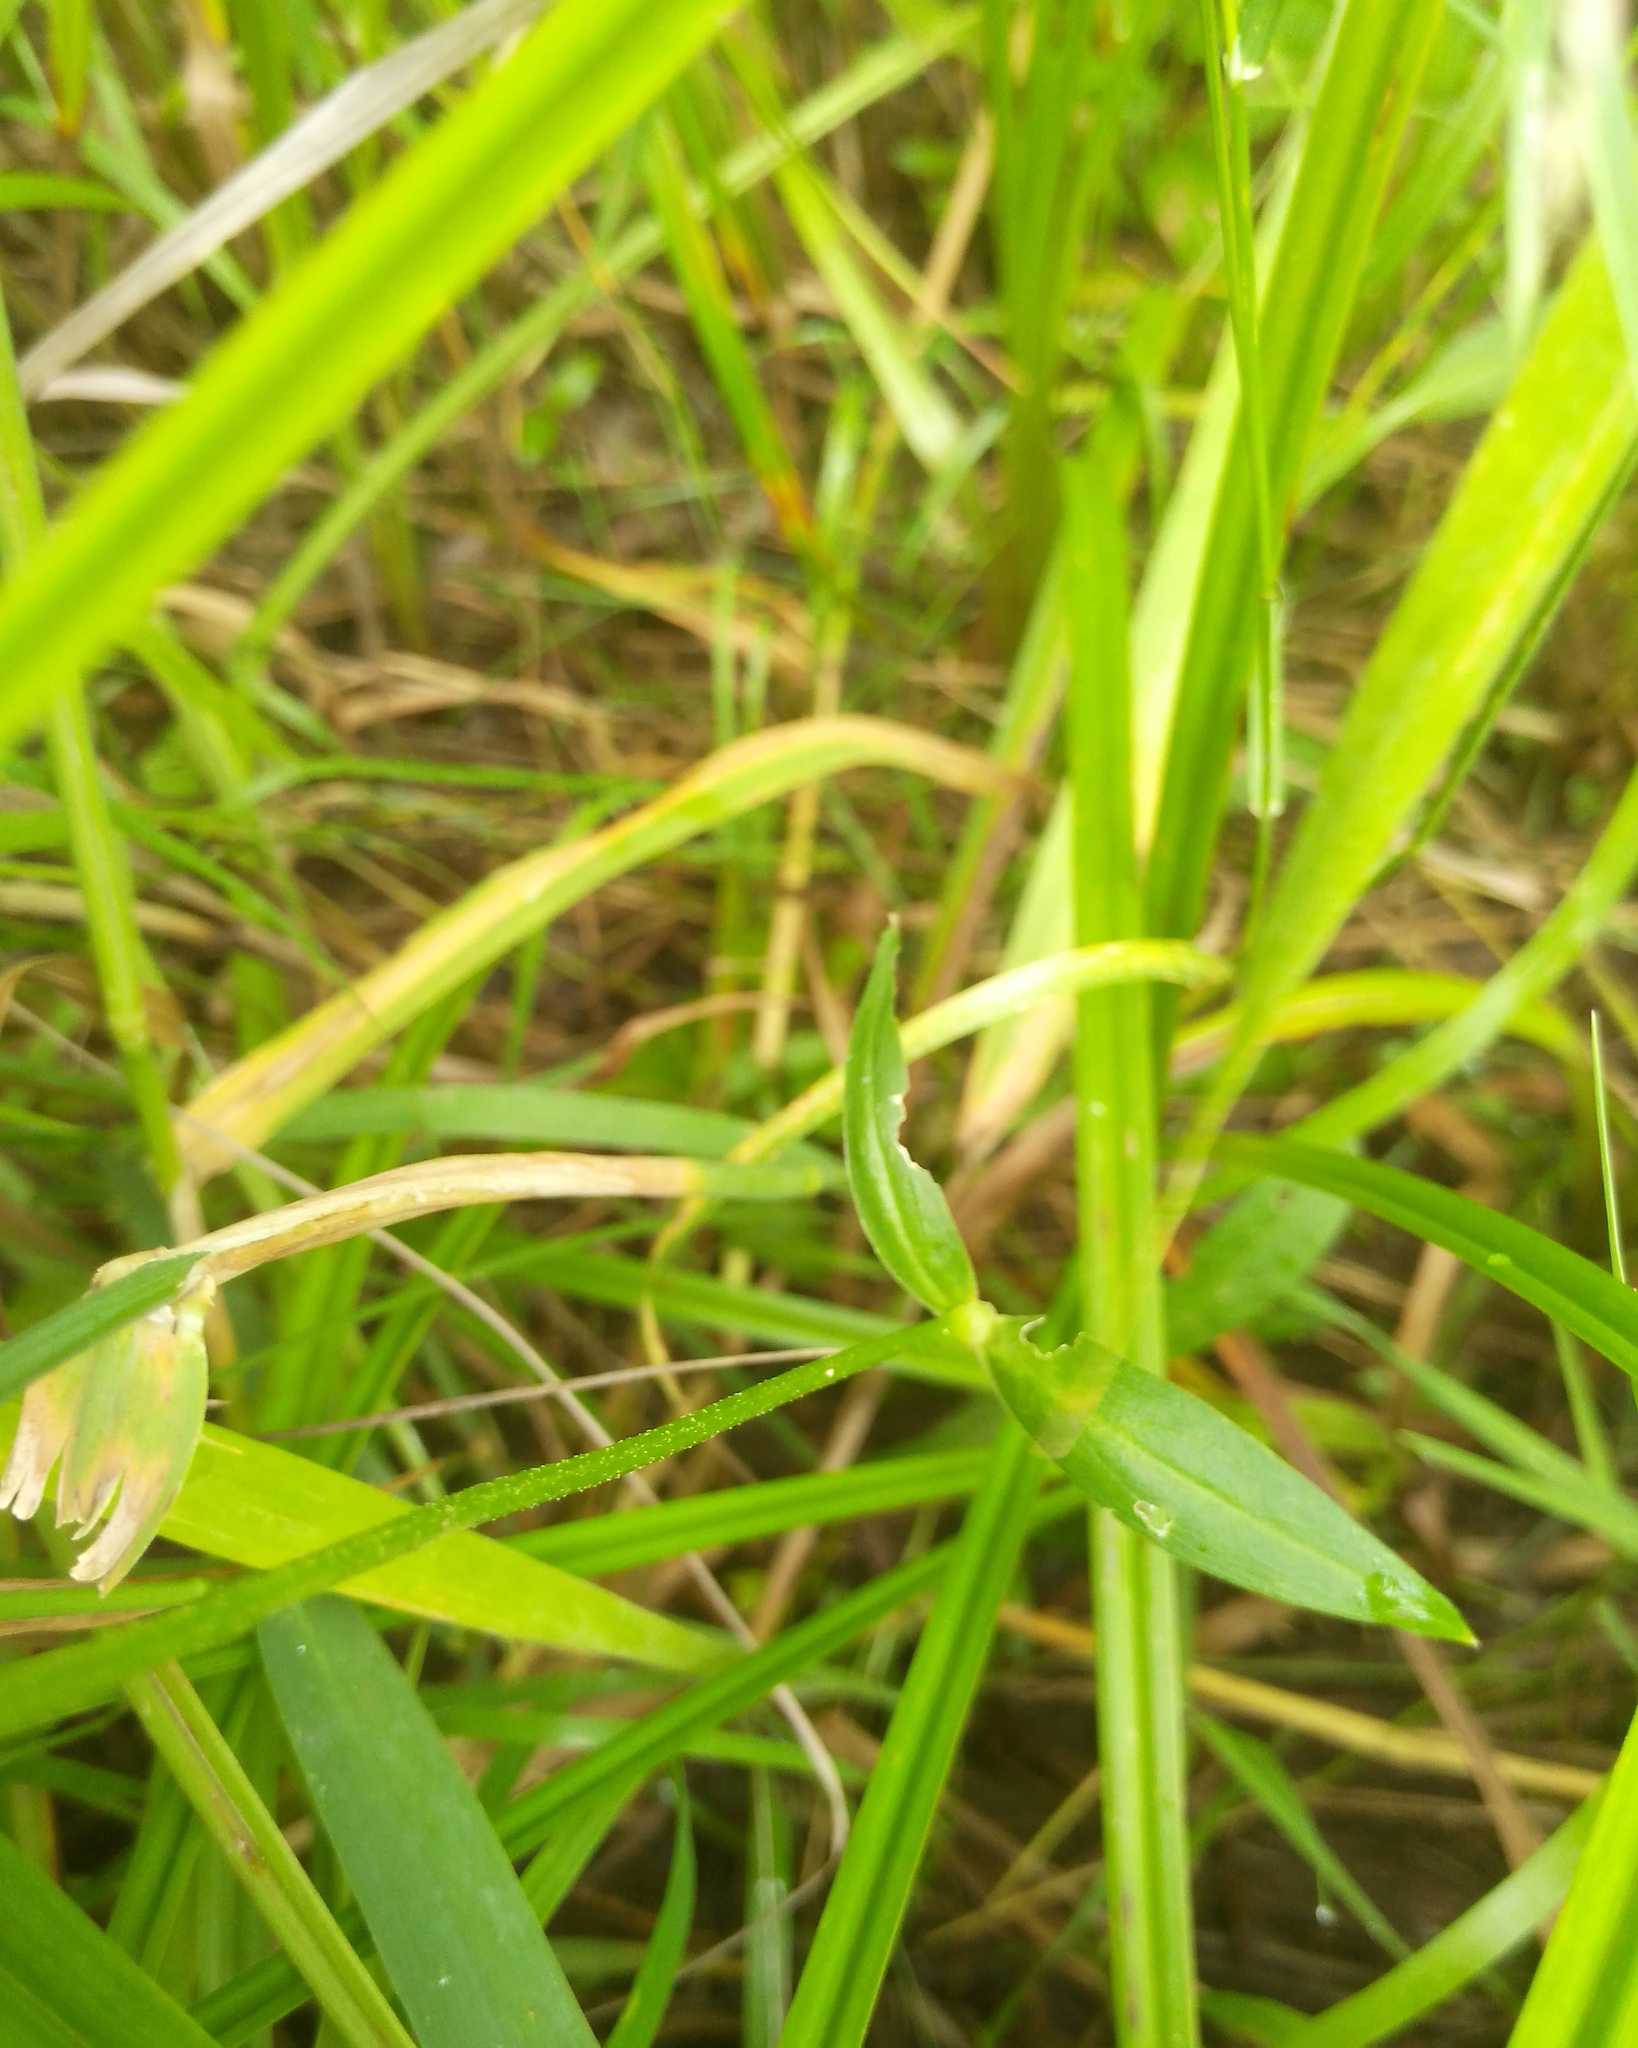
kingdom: Plantae
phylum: Tracheophyta
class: Magnoliopsida
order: Caryophyllales
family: Caryophyllaceae
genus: Silene
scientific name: Silene flos-cuculi
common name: Ragged-robin
